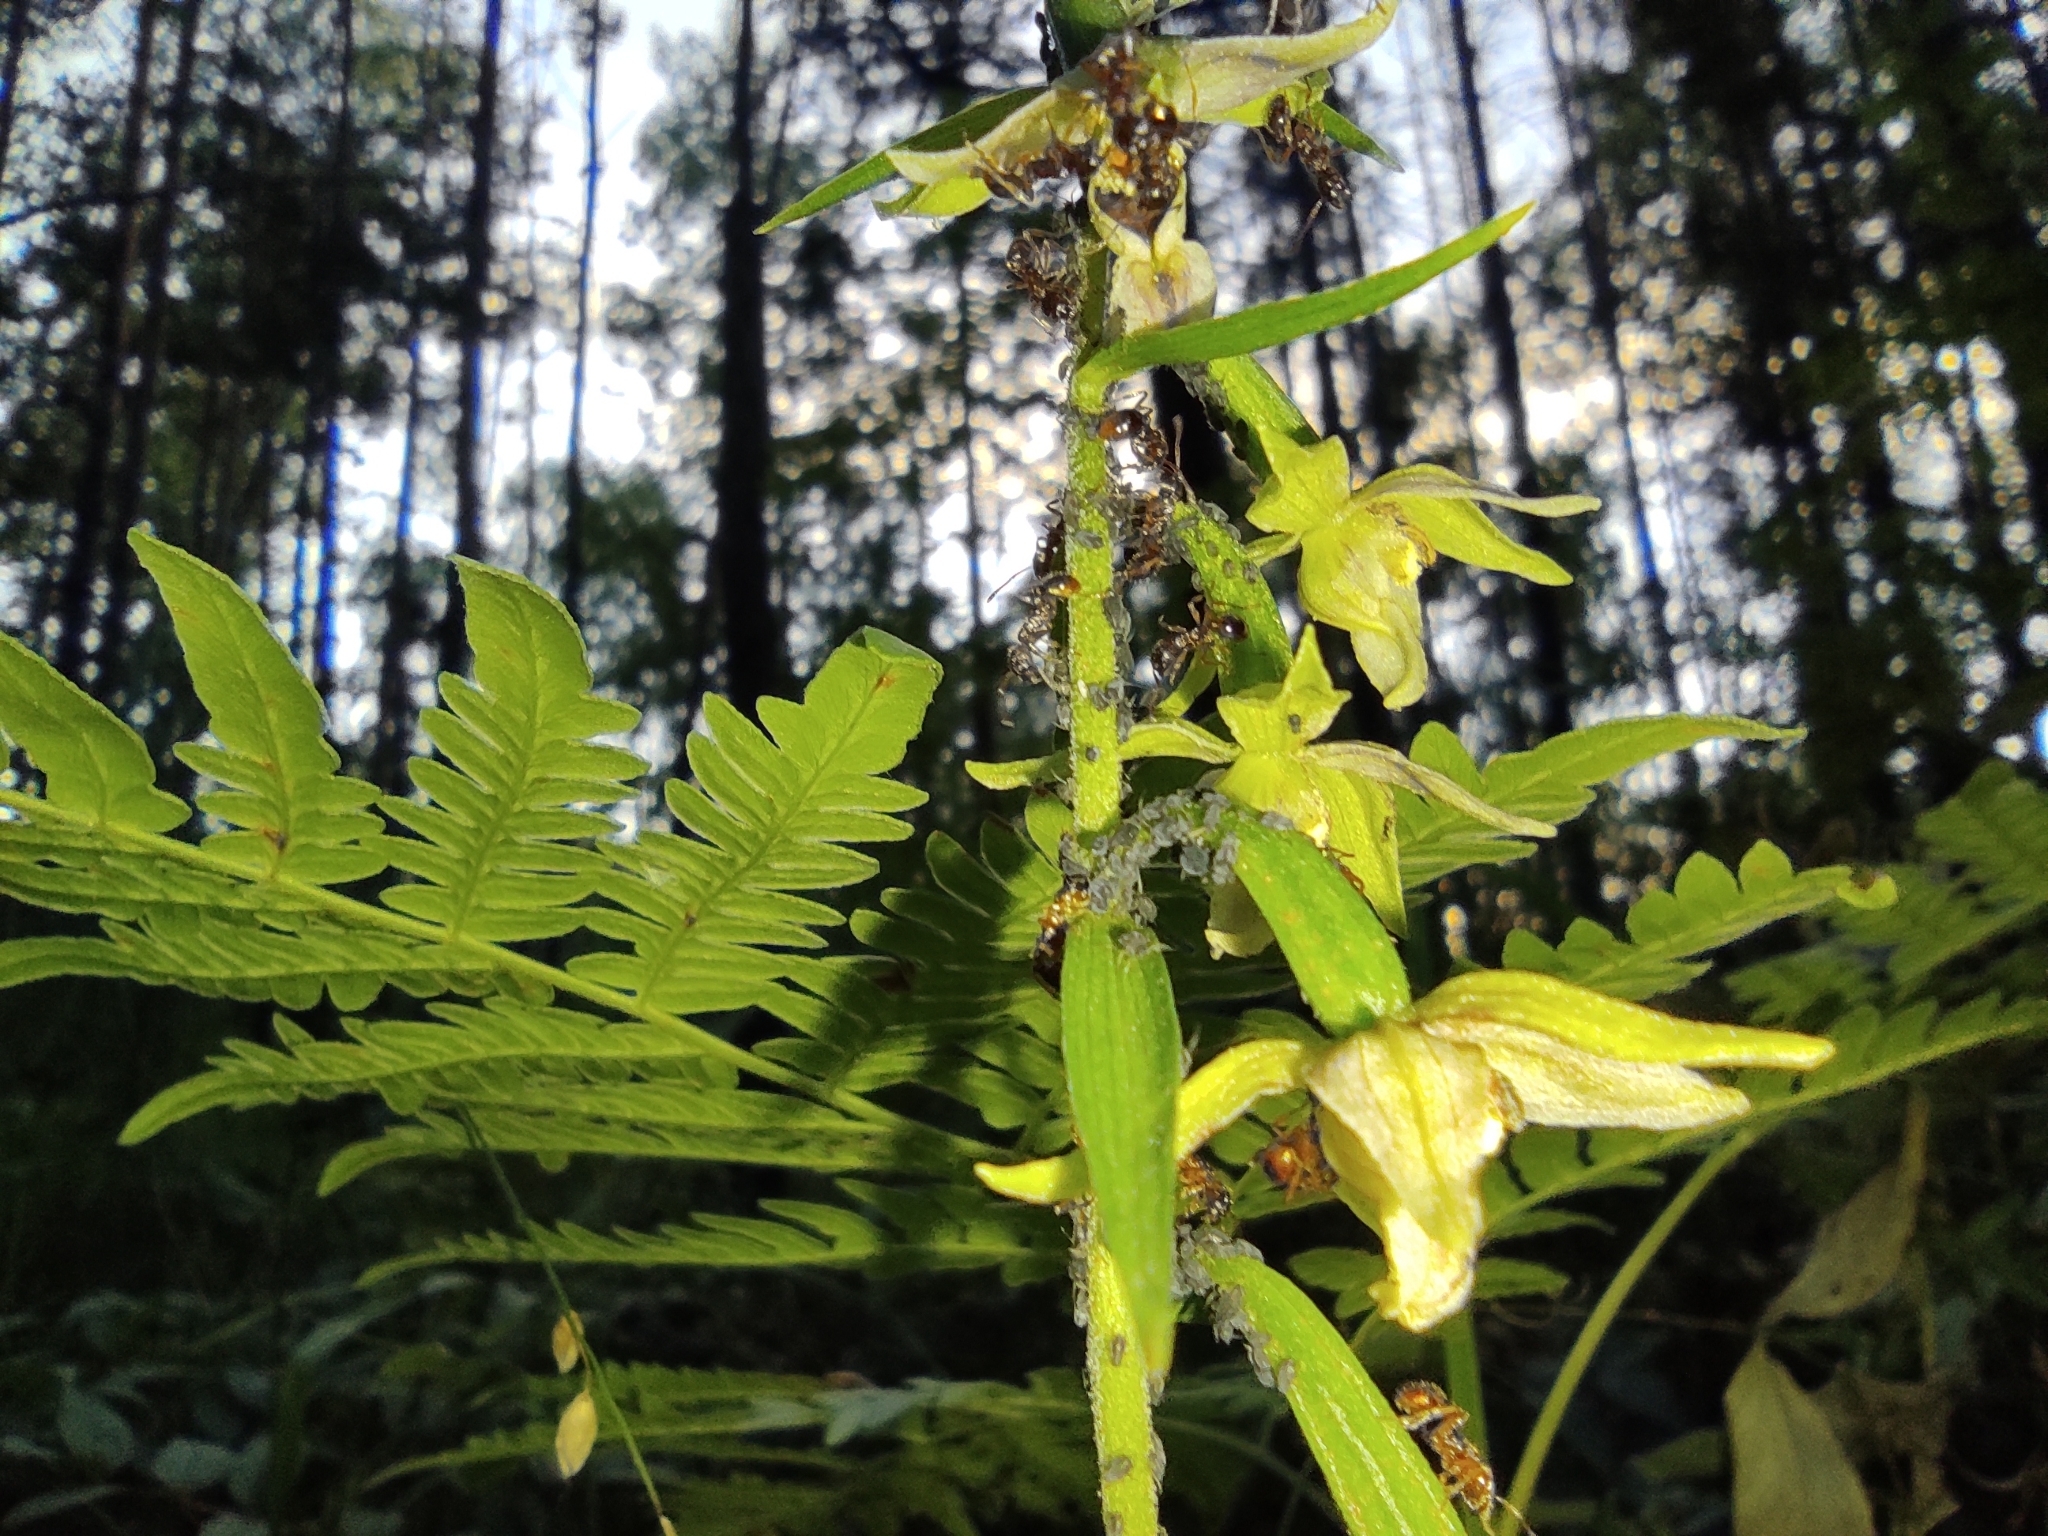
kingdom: Plantae
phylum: Tracheophyta
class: Liliopsida
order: Asparagales
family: Orchidaceae
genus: Epipactis
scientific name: Epipactis helleborine
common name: Broad-leaved helleborine
